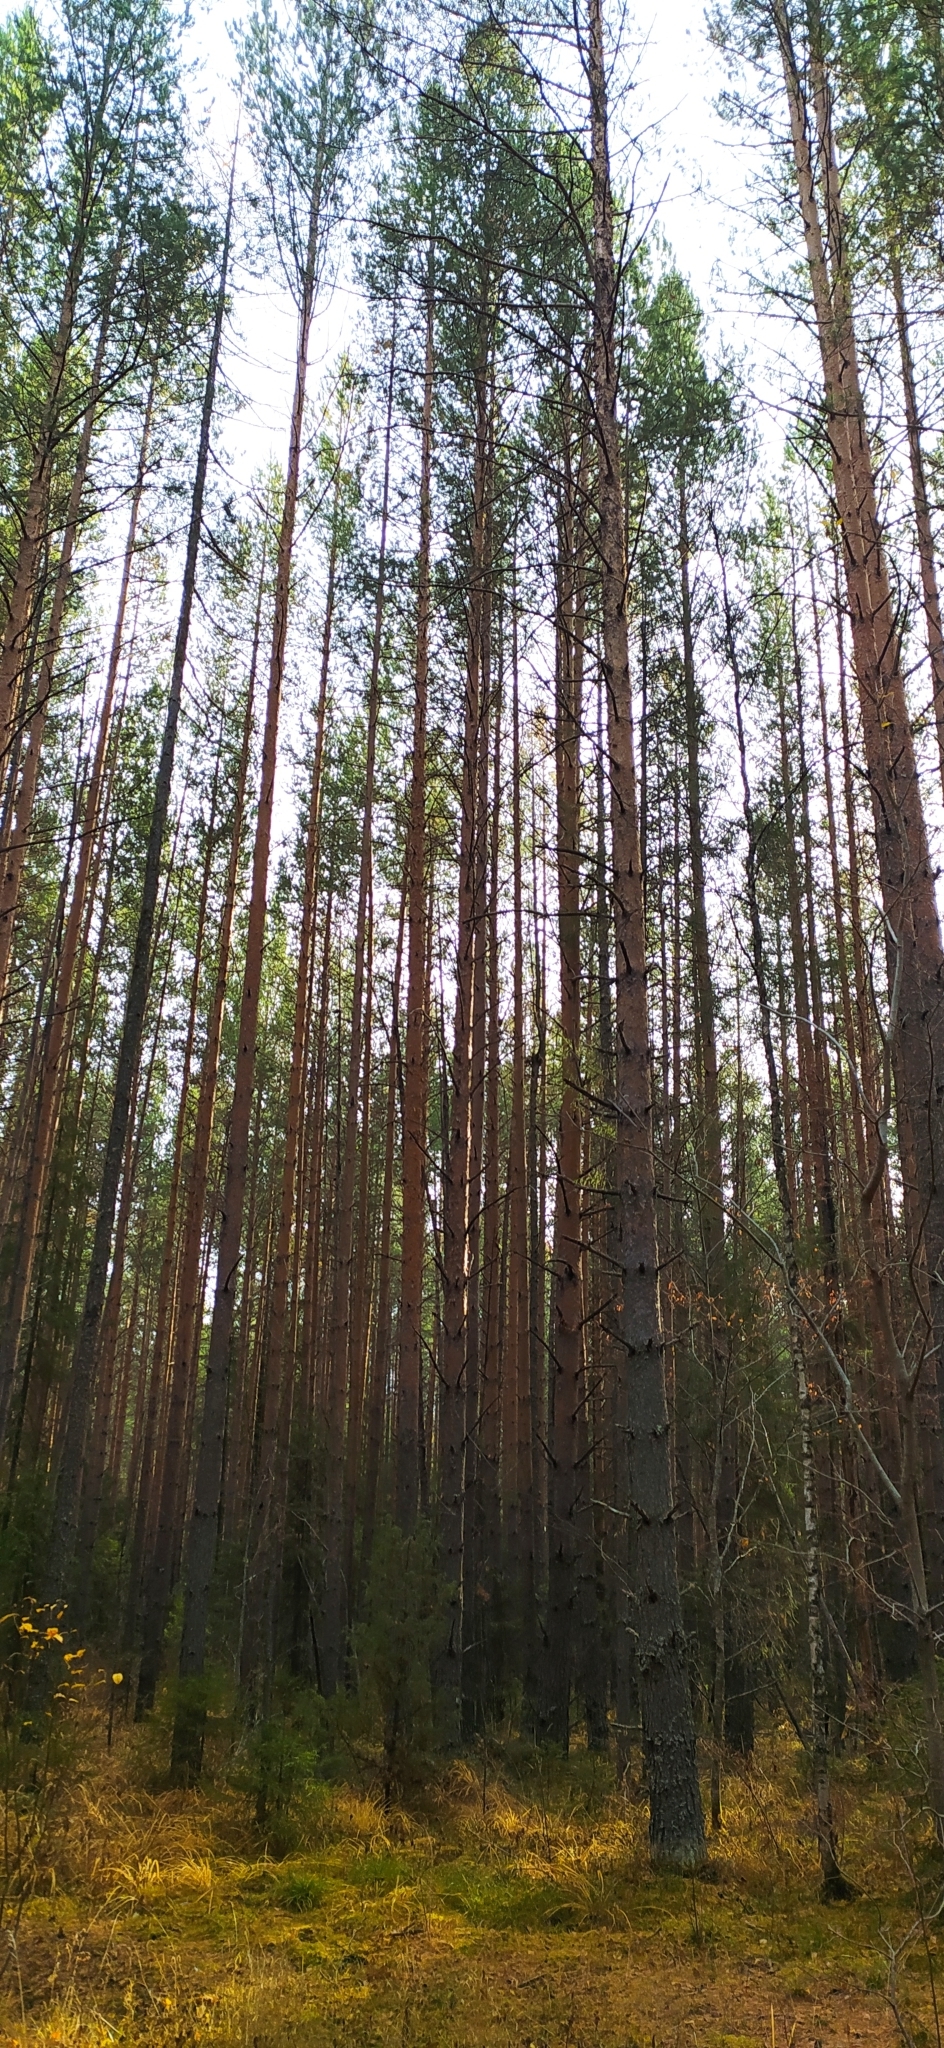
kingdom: Plantae
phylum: Tracheophyta
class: Pinopsida
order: Pinales
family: Pinaceae
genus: Pinus
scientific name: Pinus sylvestris
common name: Scots pine
